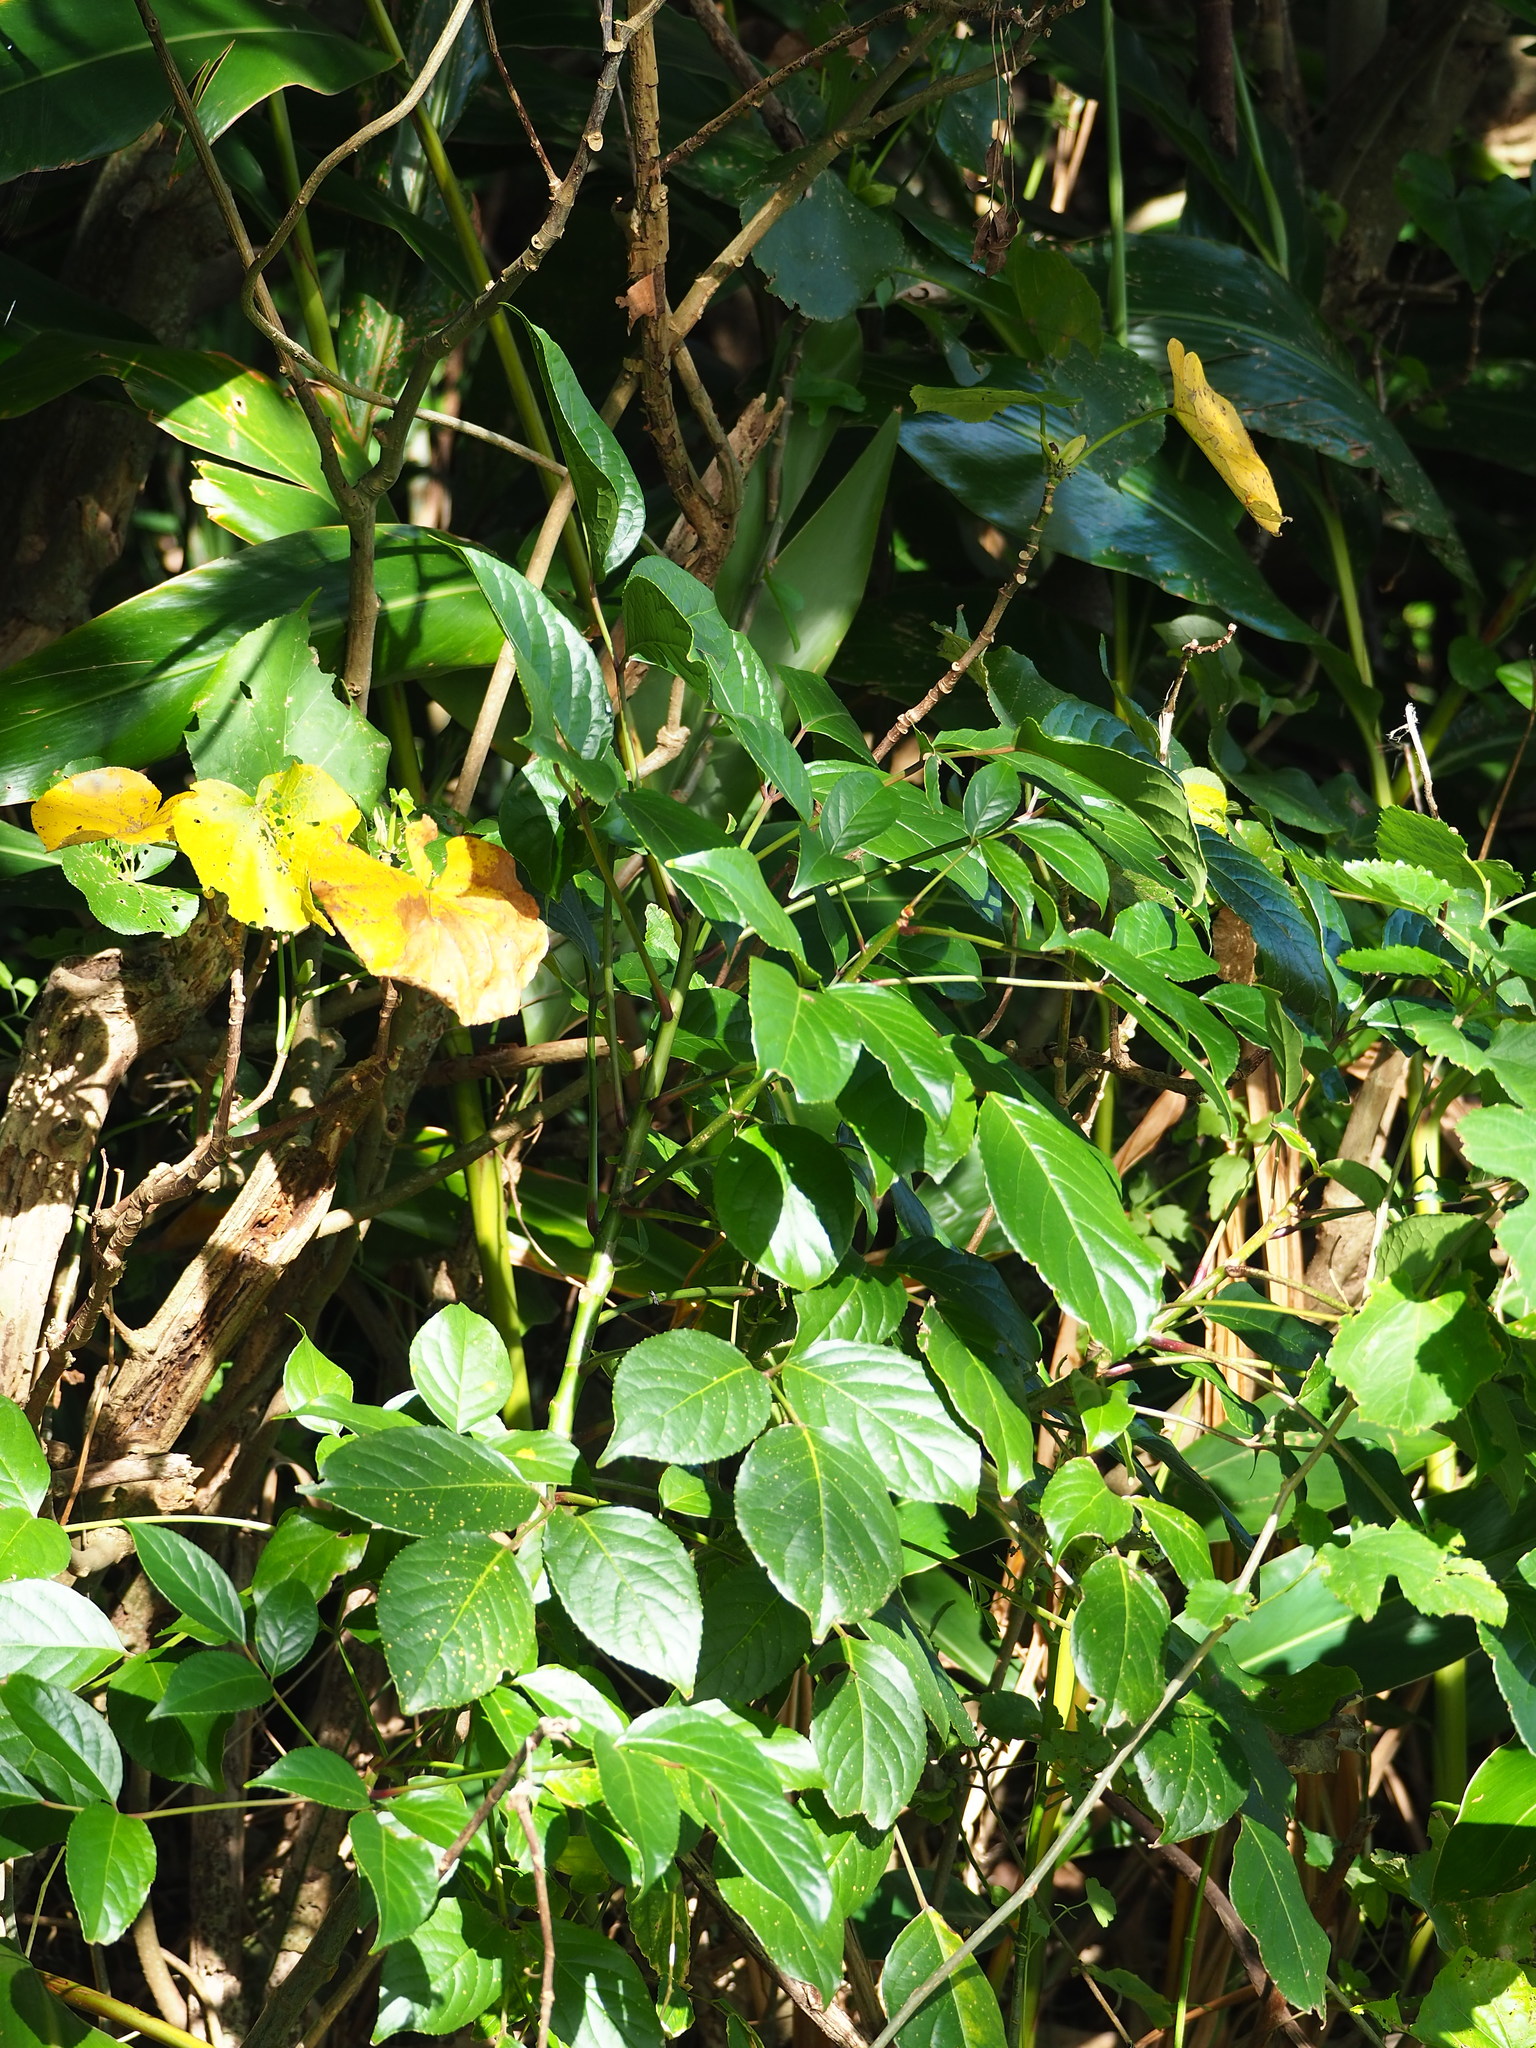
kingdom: Plantae
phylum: Tracheophyta
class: Magnoliopsida
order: Malpighiales
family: Phyllanthaceae
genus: Bischofia
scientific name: Bischofia javanica
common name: Javanese bishopwood
